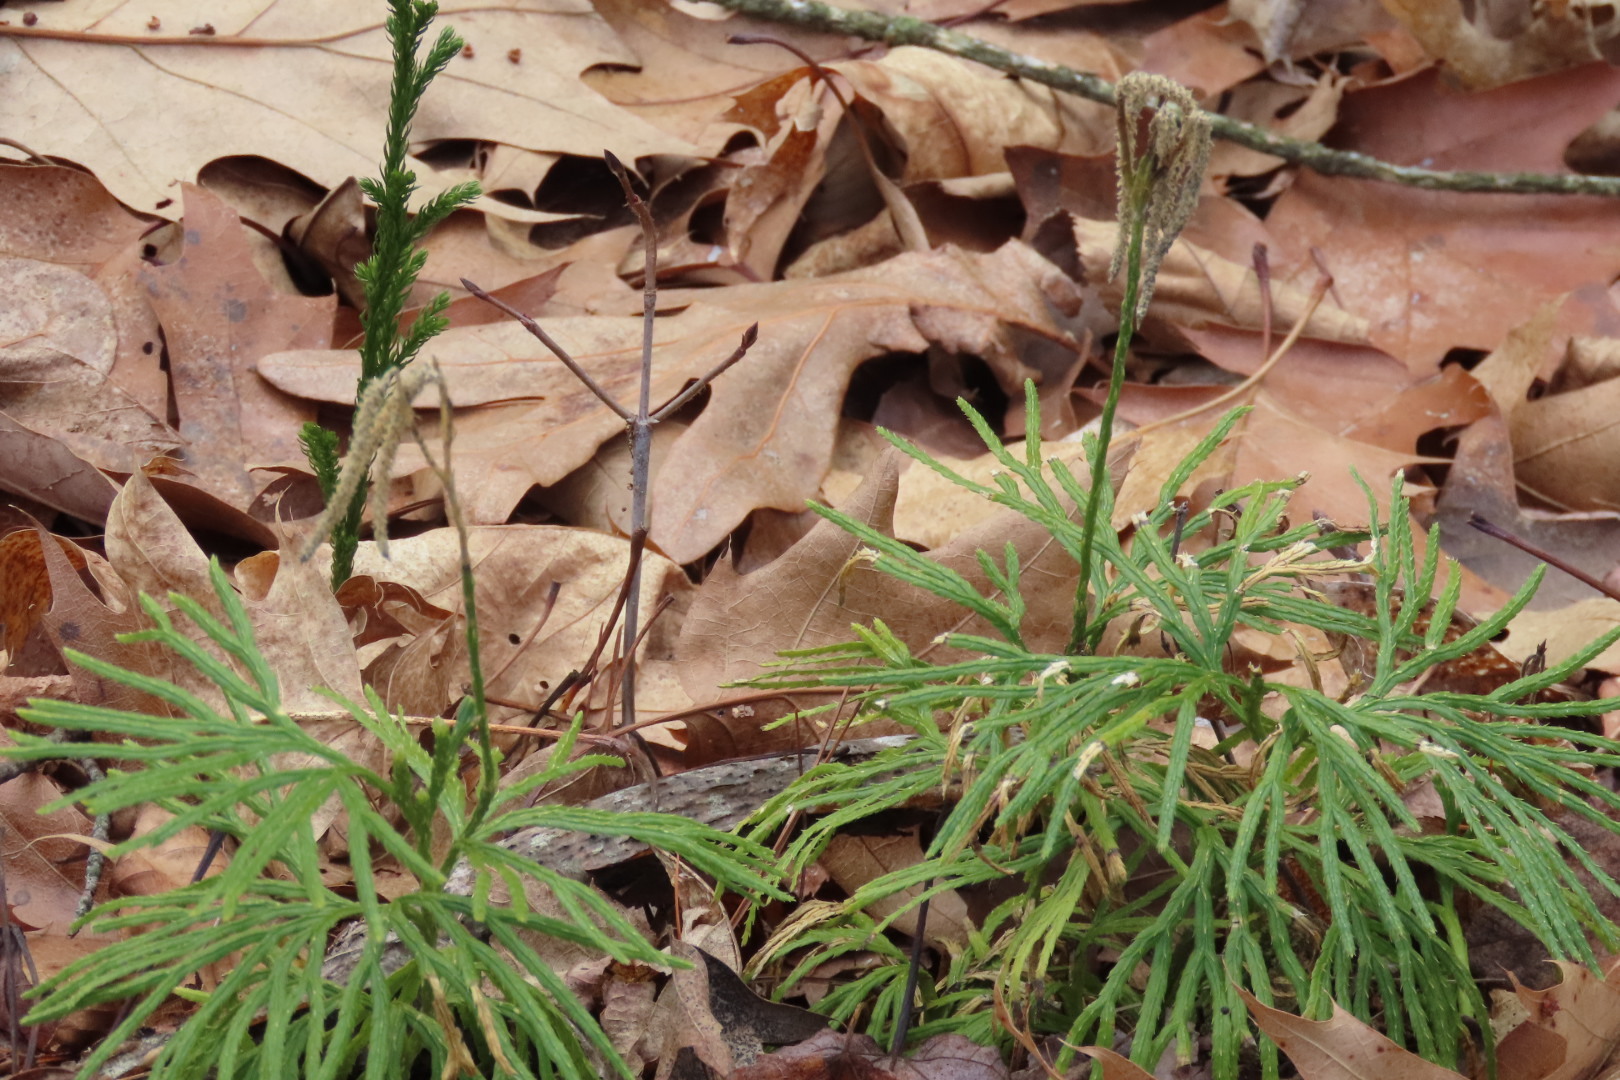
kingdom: Plantae
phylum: Tracheophyta
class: Lycopodiopsida
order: Lycopodiales
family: Lycopodiaceae
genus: Diphasiastrum
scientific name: Diphasiastrum digitatum
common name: Southern running-pine
